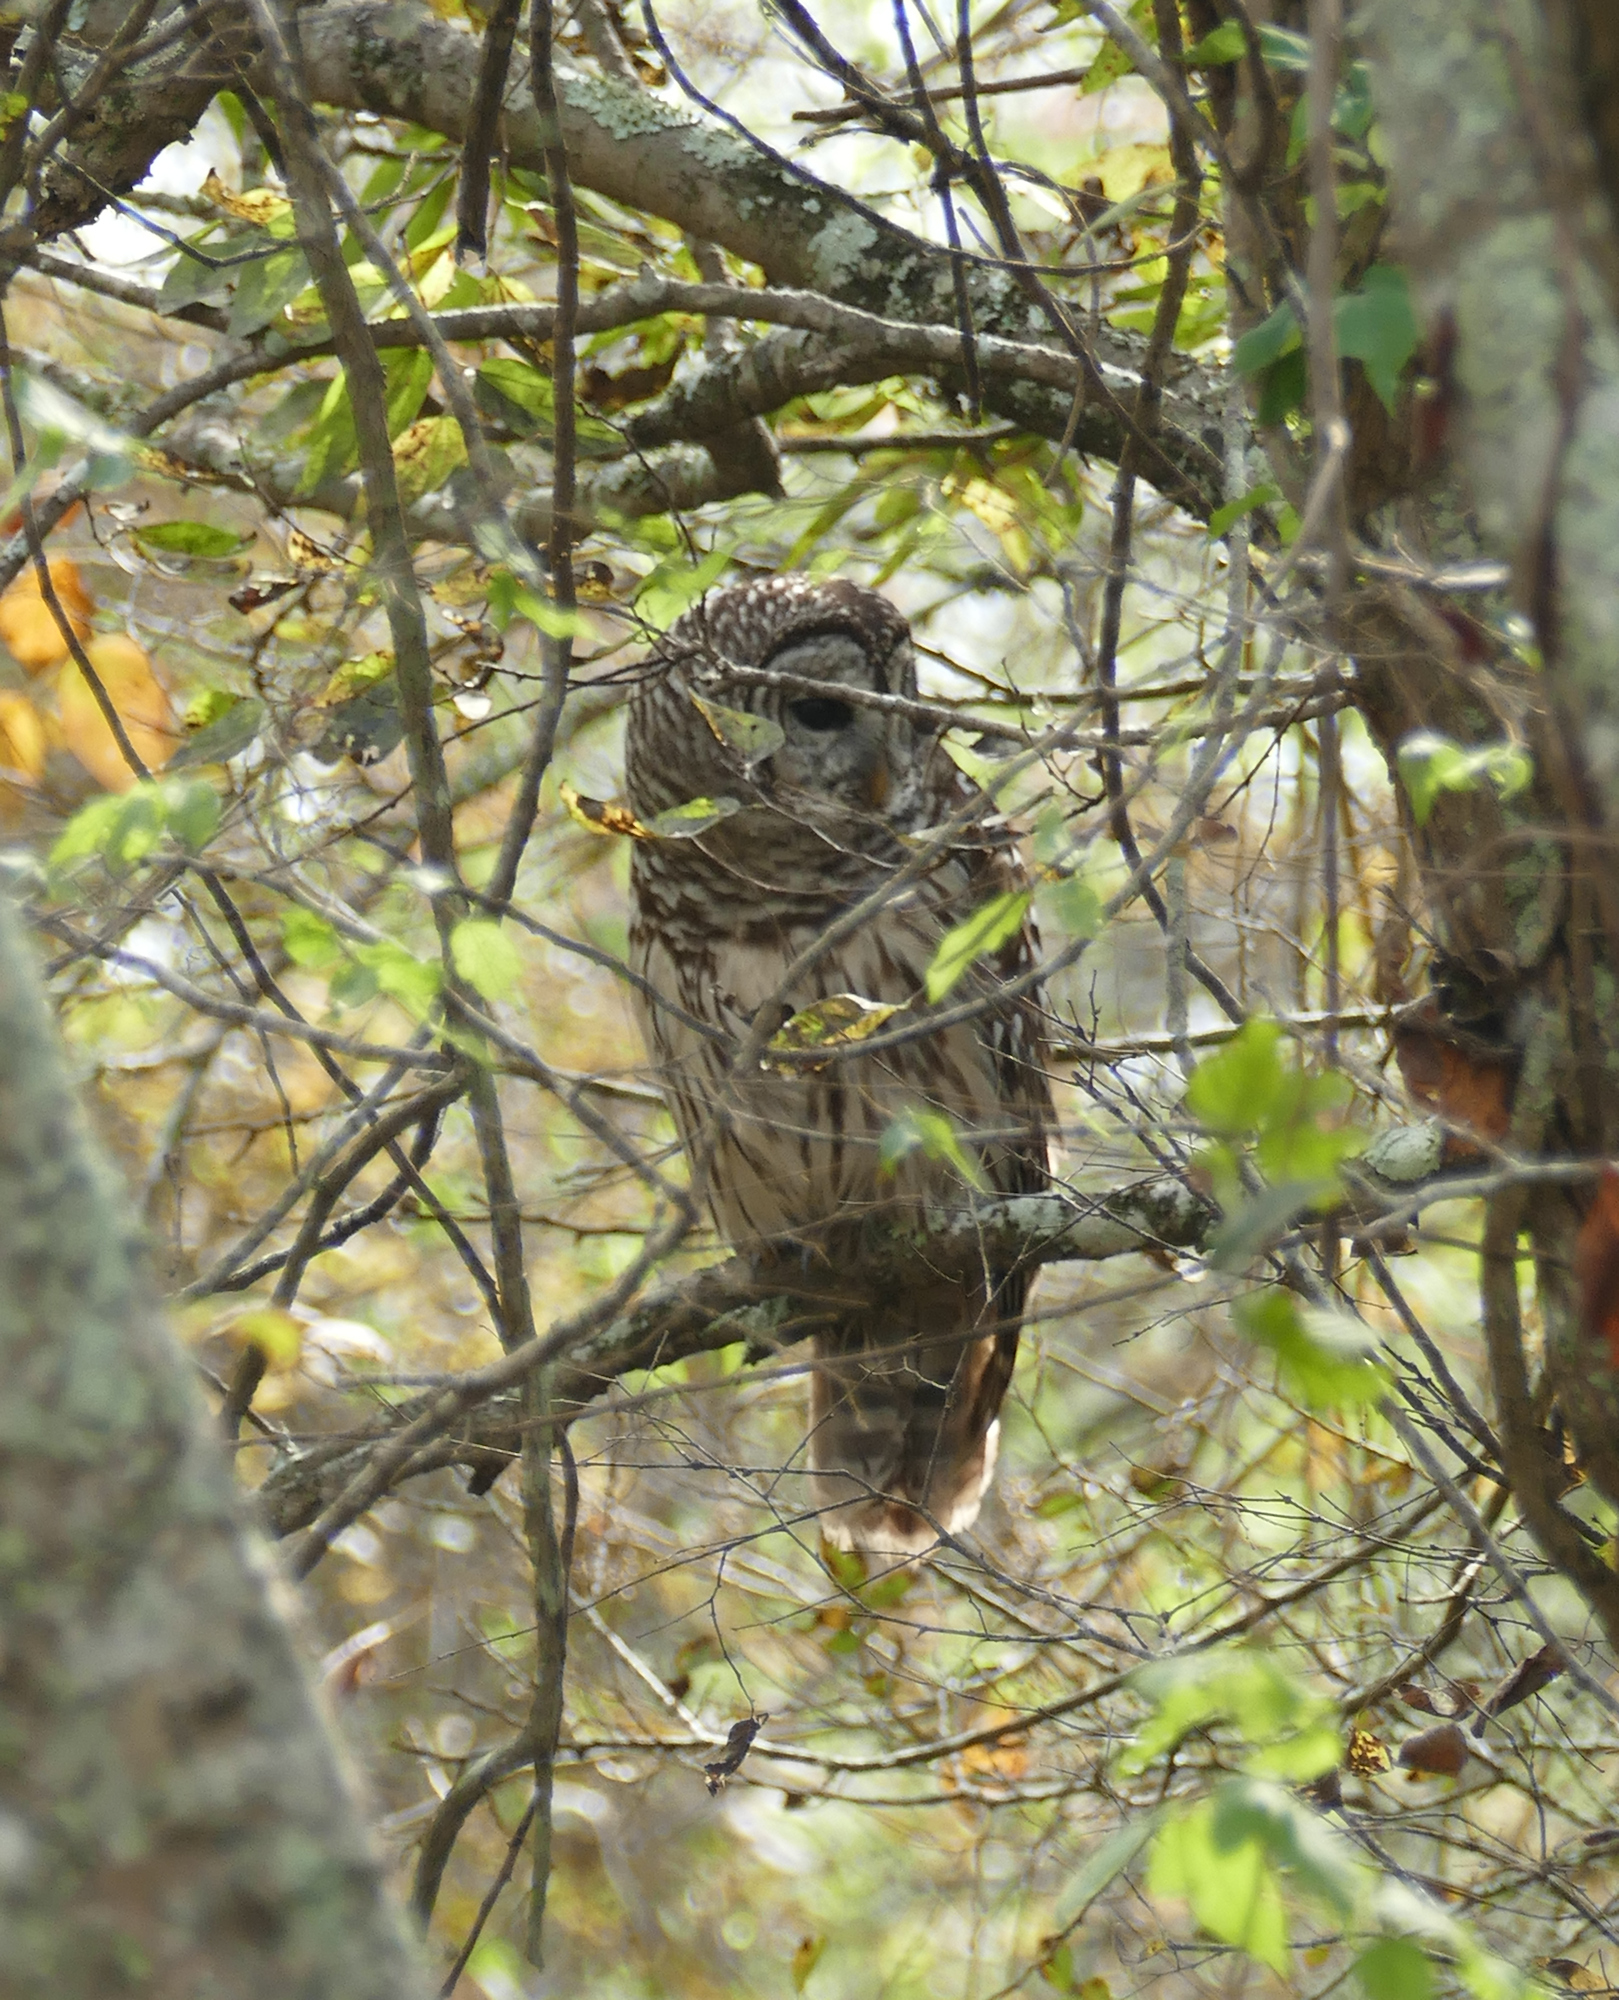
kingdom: Animalia
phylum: Chordata
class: Aves
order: Strigiformes
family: Strigidae
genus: Strix
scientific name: Strix varia
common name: Barred owl
